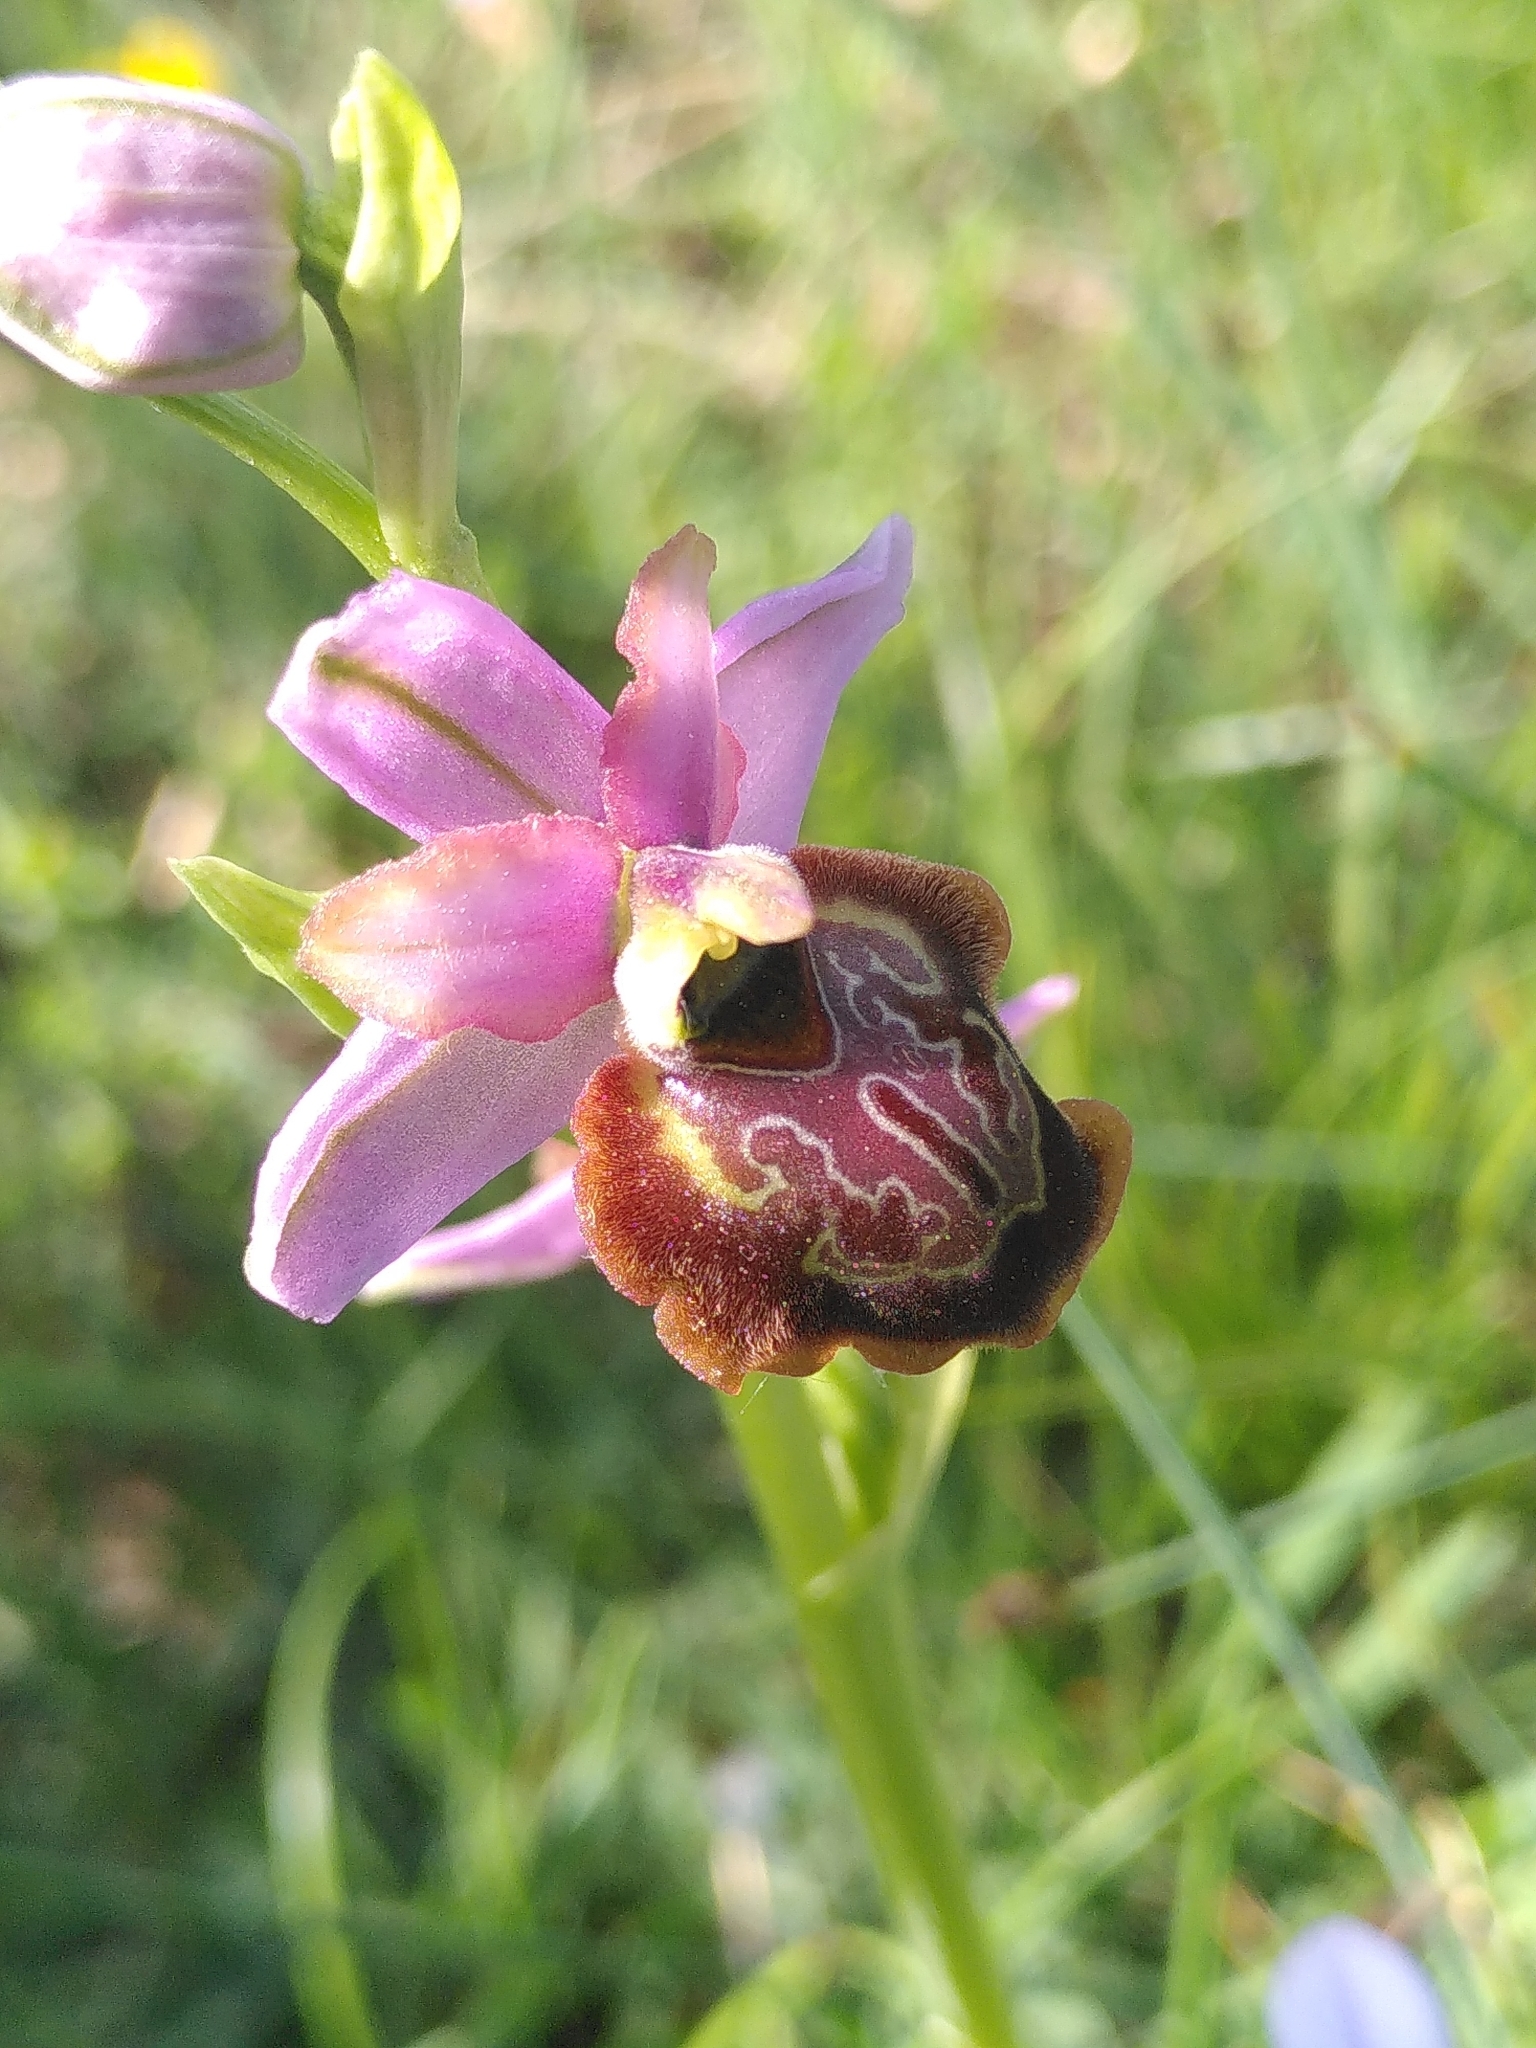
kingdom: Plantae
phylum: Tracheophyta
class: Liliopsida
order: Asparagales
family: Orchidaceae
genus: Ophrys
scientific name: Ophrys sphegodes
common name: Early spider-orchid
